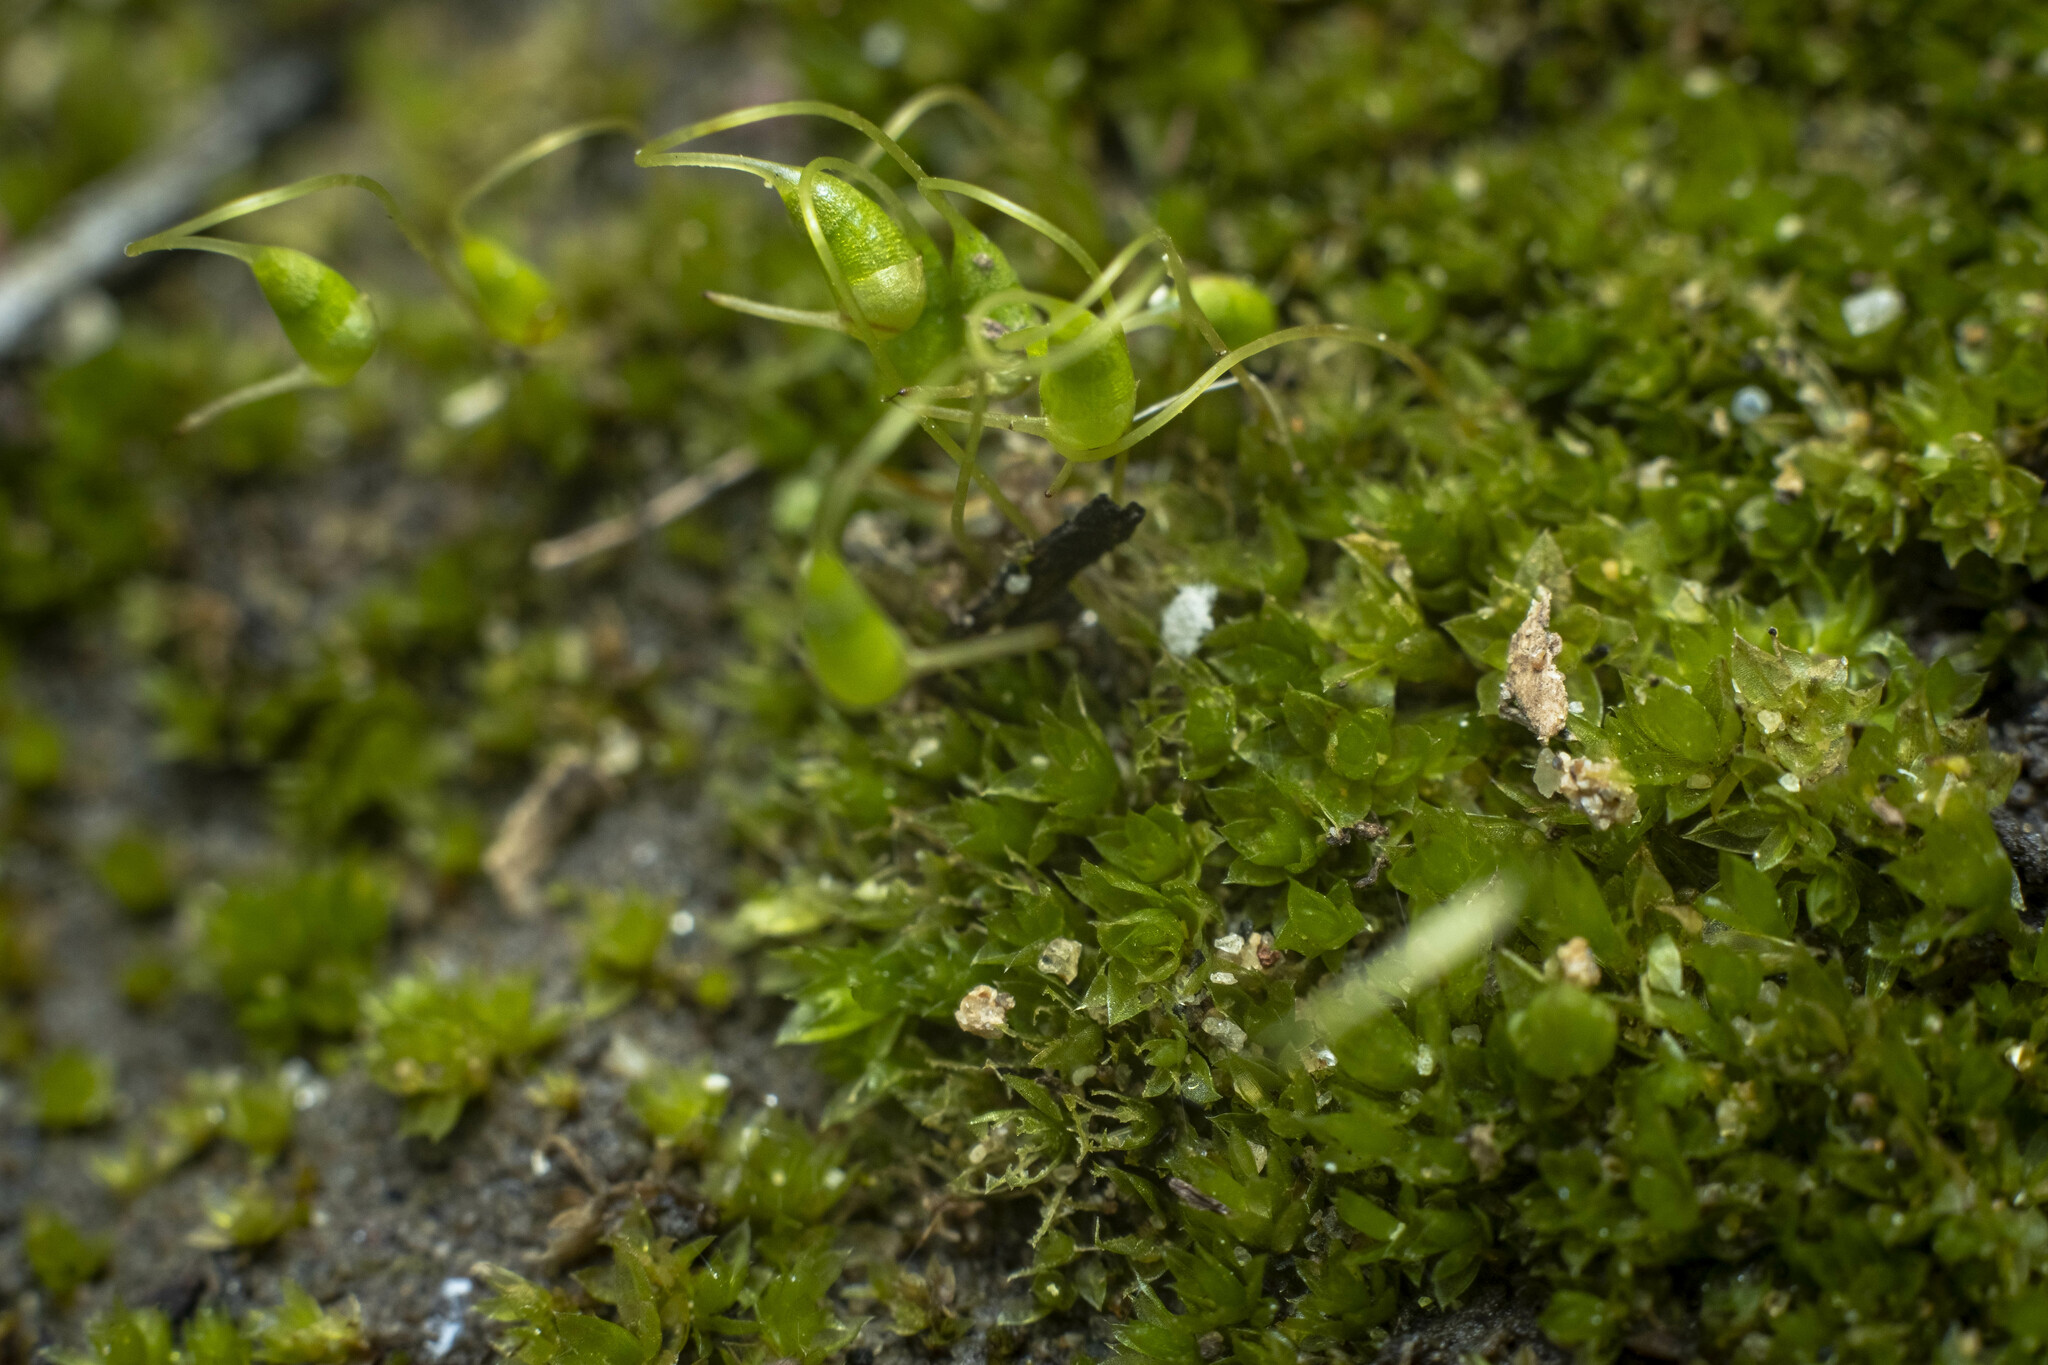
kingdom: Plantae
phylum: Bryophyta
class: Bryopsida
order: Funariales
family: Funariaceae
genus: Funaria
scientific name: Funaria hygrometrica
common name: Common cord moss
